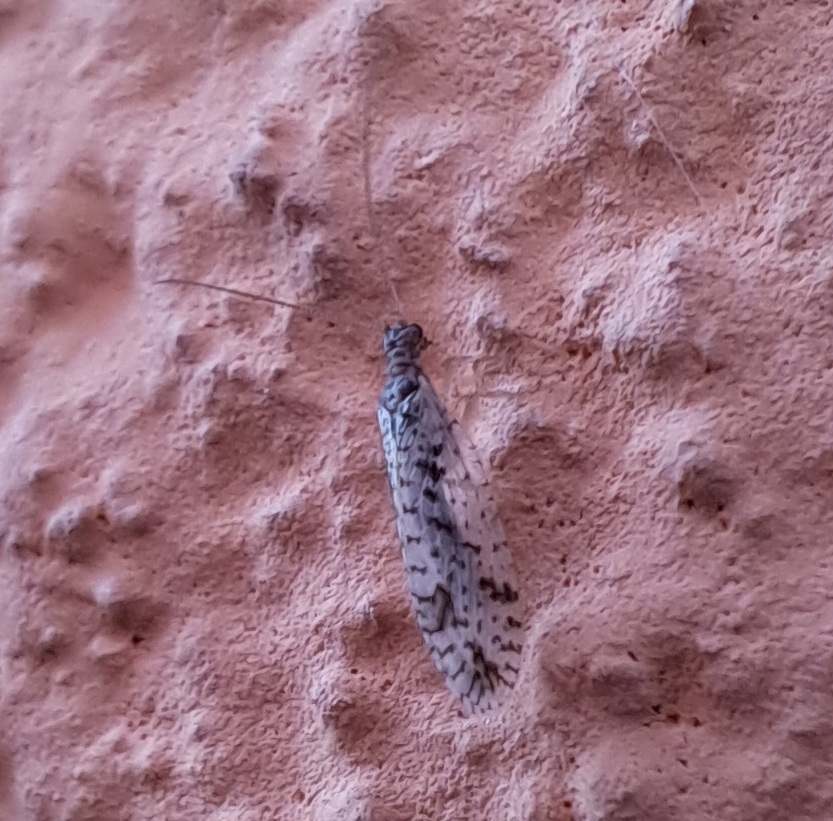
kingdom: Animalia
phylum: Arthropoda
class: Insecta
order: Neuroptera
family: Hemerobiidae
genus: Micromus
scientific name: Micromus variegatus
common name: Brown lacewing
